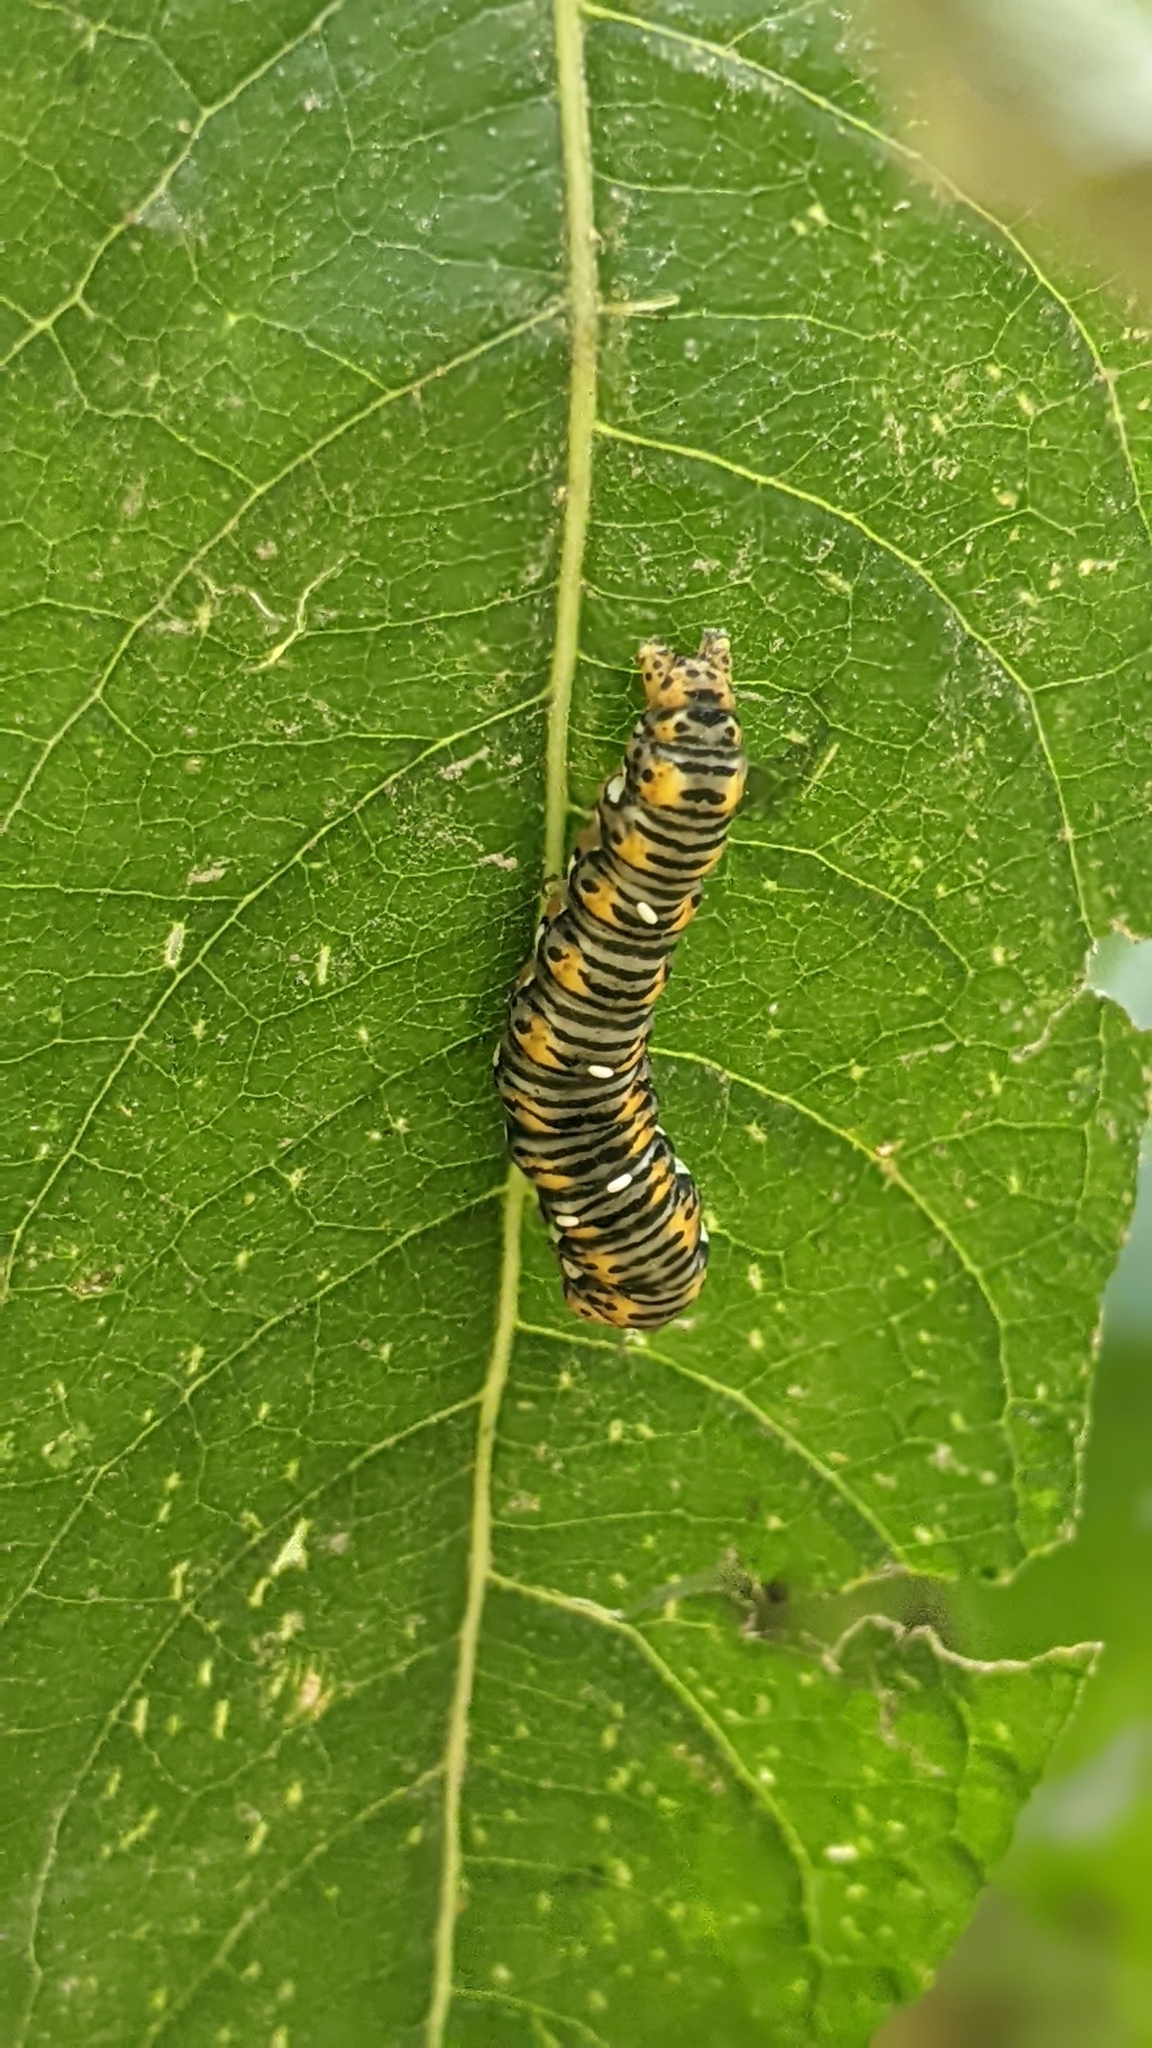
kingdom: Animalia
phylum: Arthropoda
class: Insecta
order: Lepidoptera
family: Noctuidae
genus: Basilodes
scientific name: Basilodes pepita
